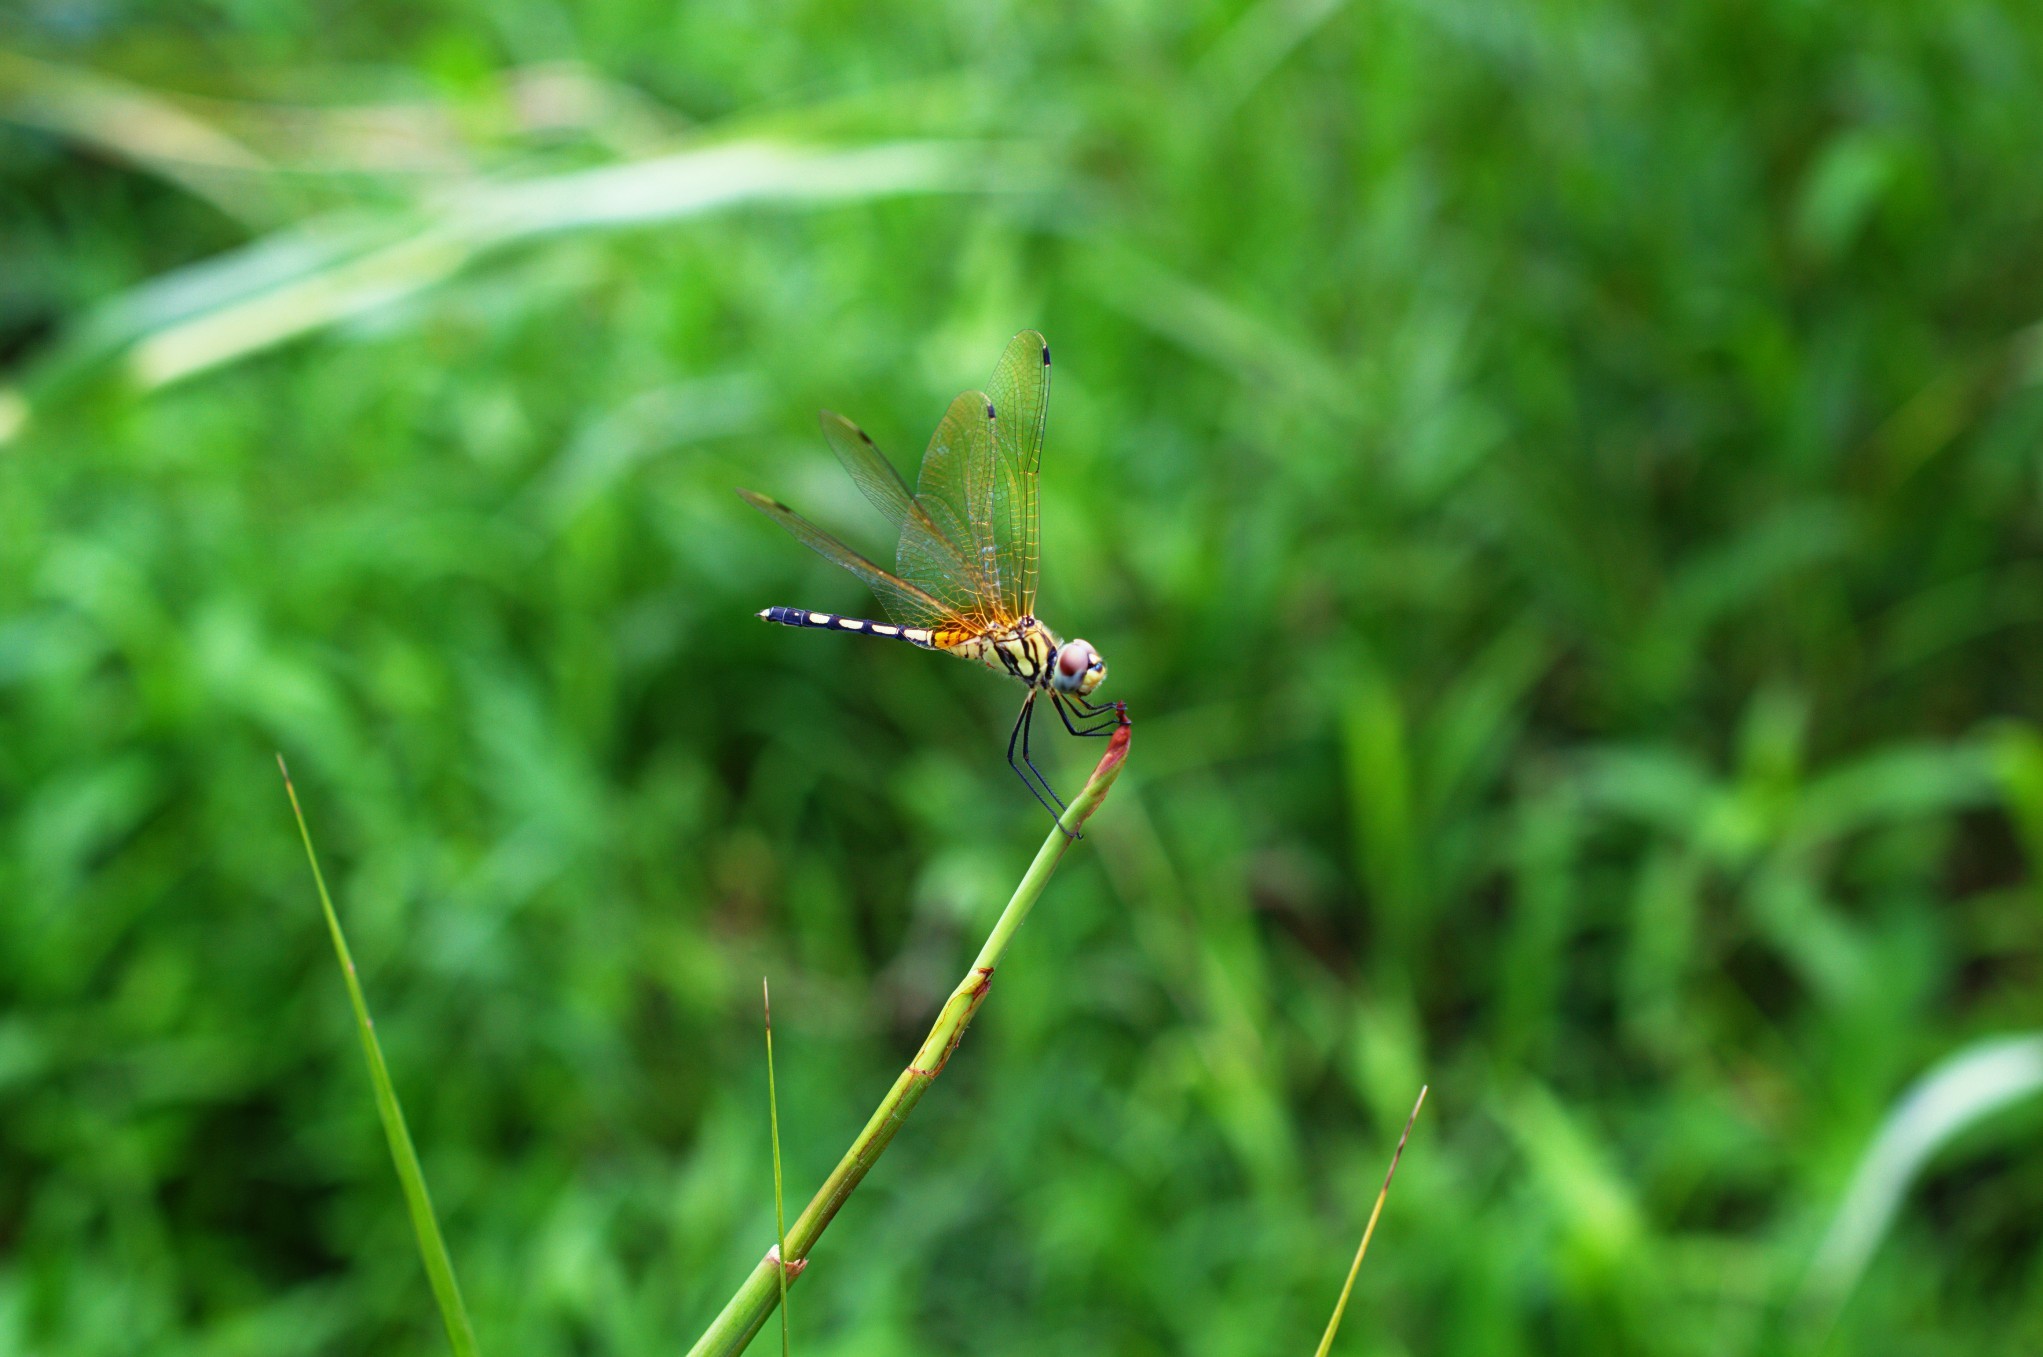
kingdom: Animalia
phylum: Arthropoda
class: Insecta
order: Odonata
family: Libellulidae
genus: Trithemis
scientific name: Trithemis pallidinervis
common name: Dancing dropwing
